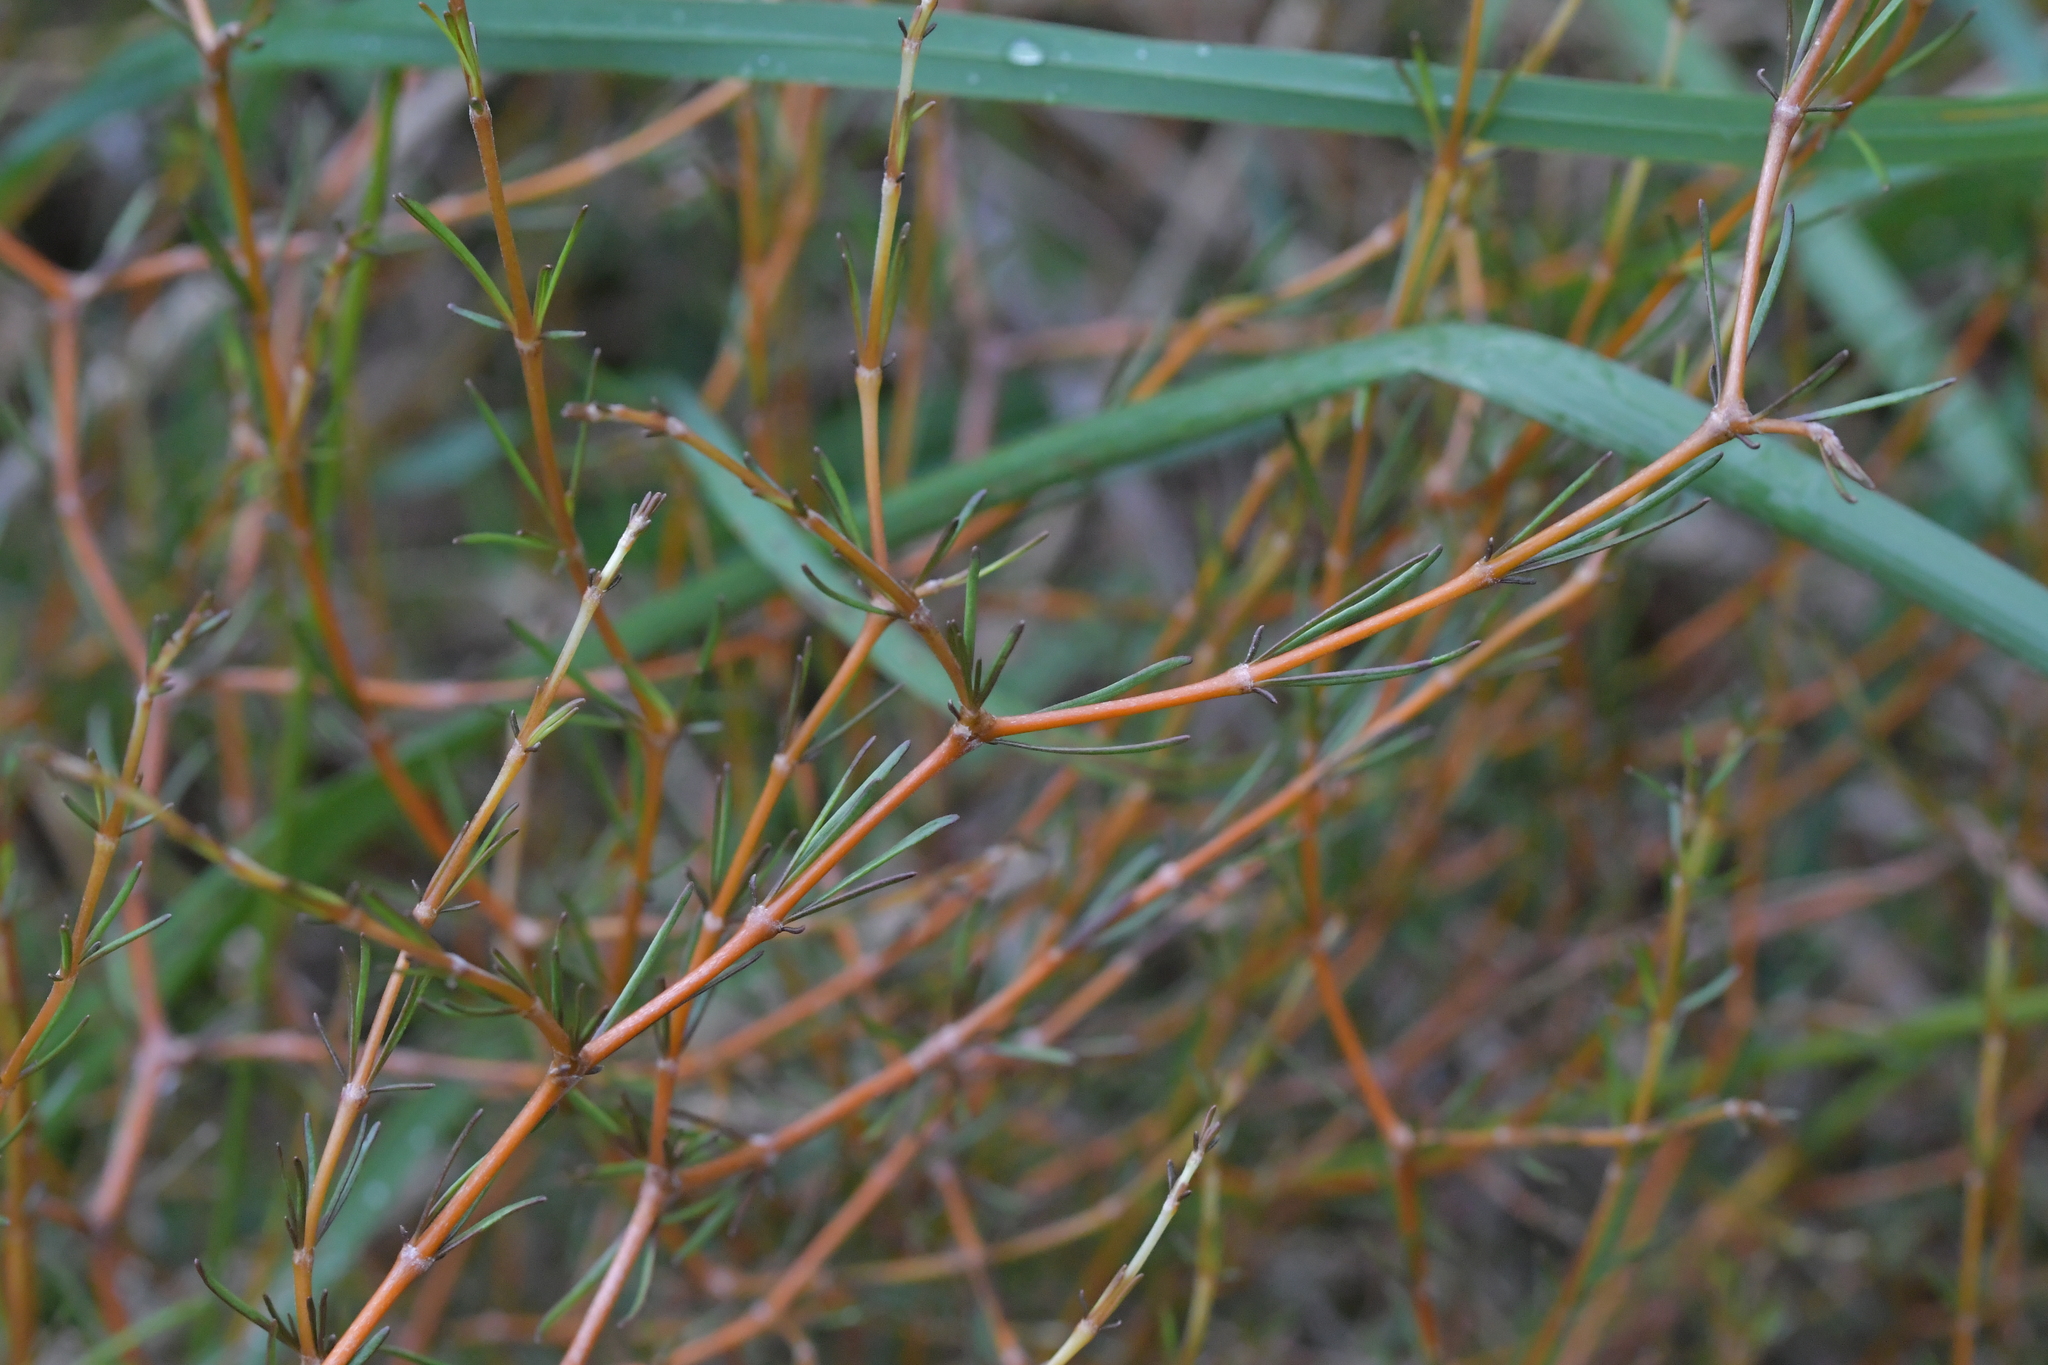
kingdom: Plantae
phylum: Tracheophyta
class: Magnoliopsida
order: Gentianales
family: Rubiaceae
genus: Coprosma
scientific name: Coprosma acerosa
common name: Sand coprosma
